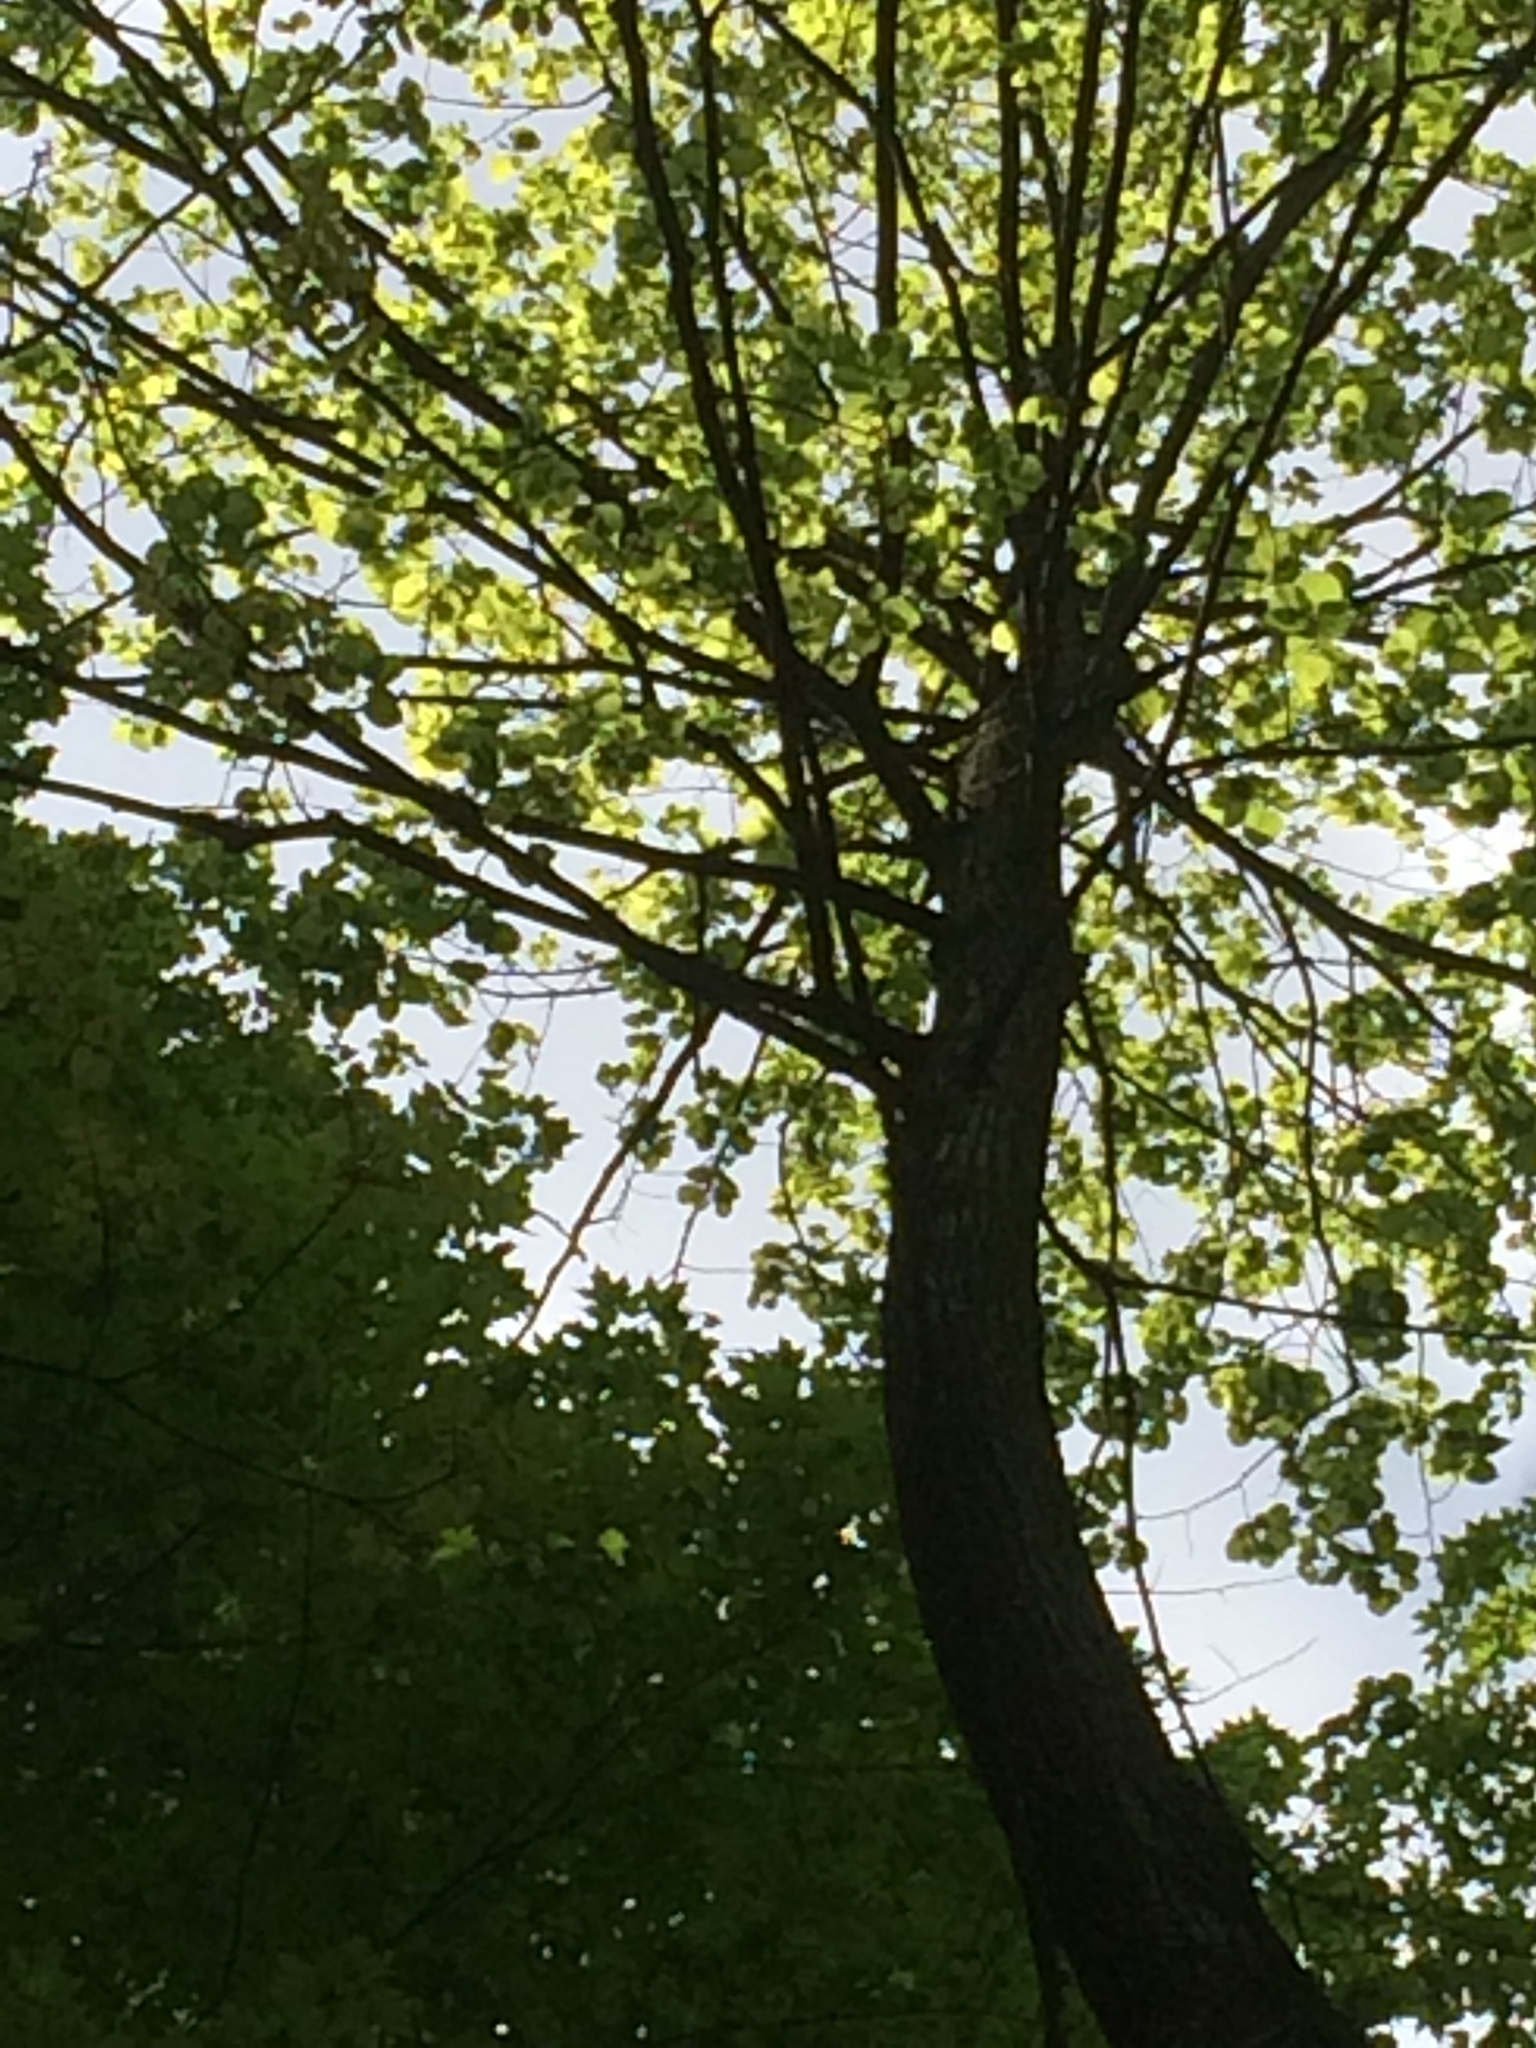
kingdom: Plantae
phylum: Tracheophyta
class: Magnoliopsida
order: Malvales
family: Malvaceae
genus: Tilia
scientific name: Tilia americana
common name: Basswood
